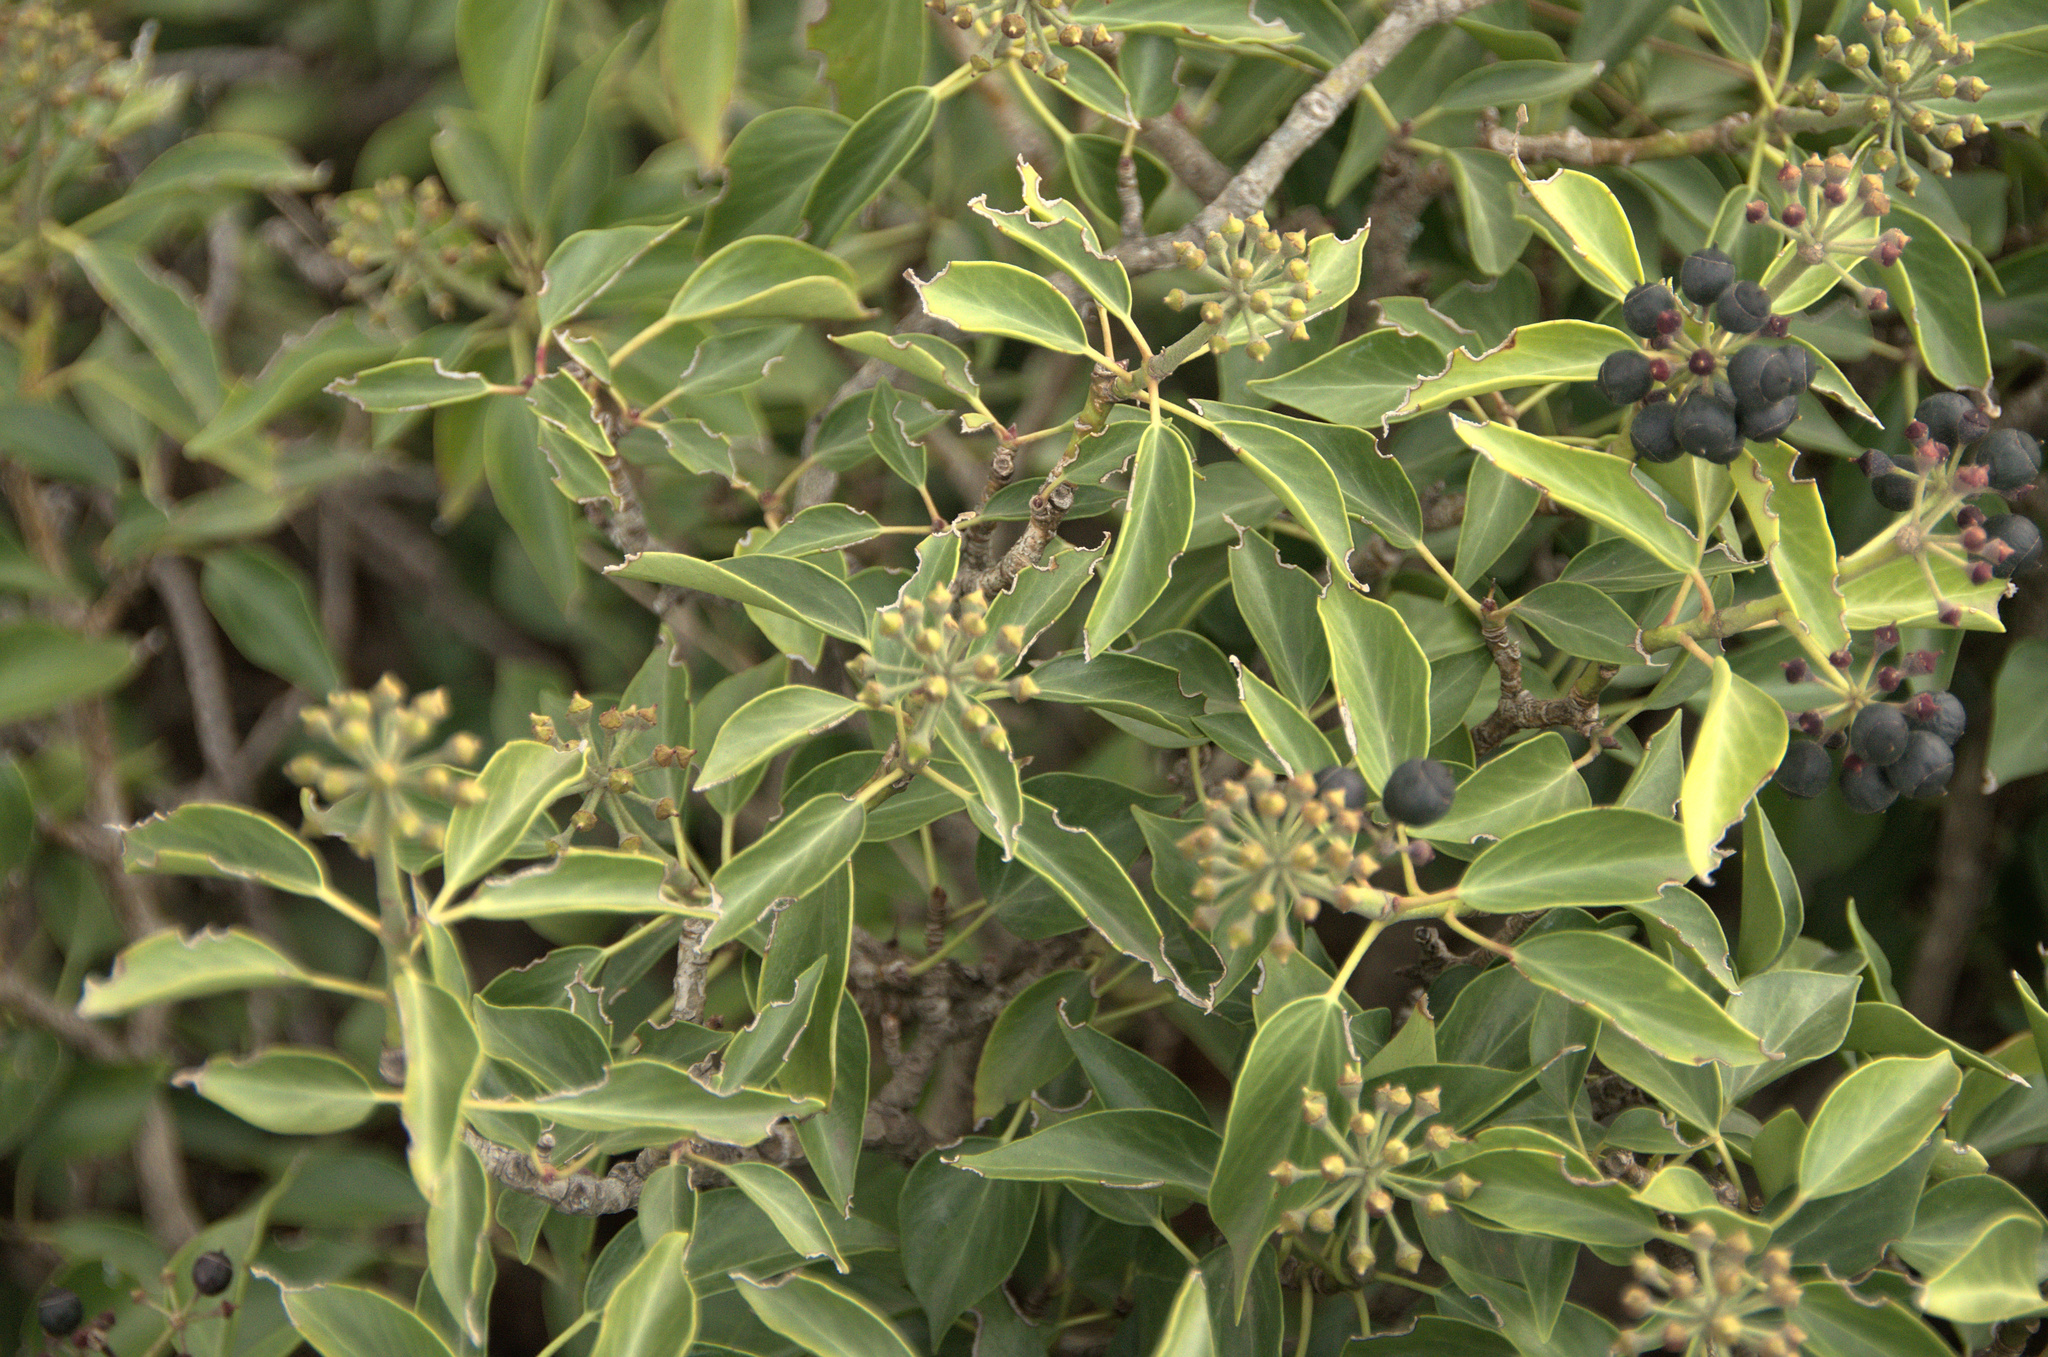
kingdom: Plantae
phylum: Tracheophyta
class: Magnoliopsida
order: Apiales
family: Araliaceae
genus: Hedera
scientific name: Hedera helix
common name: Ivy
